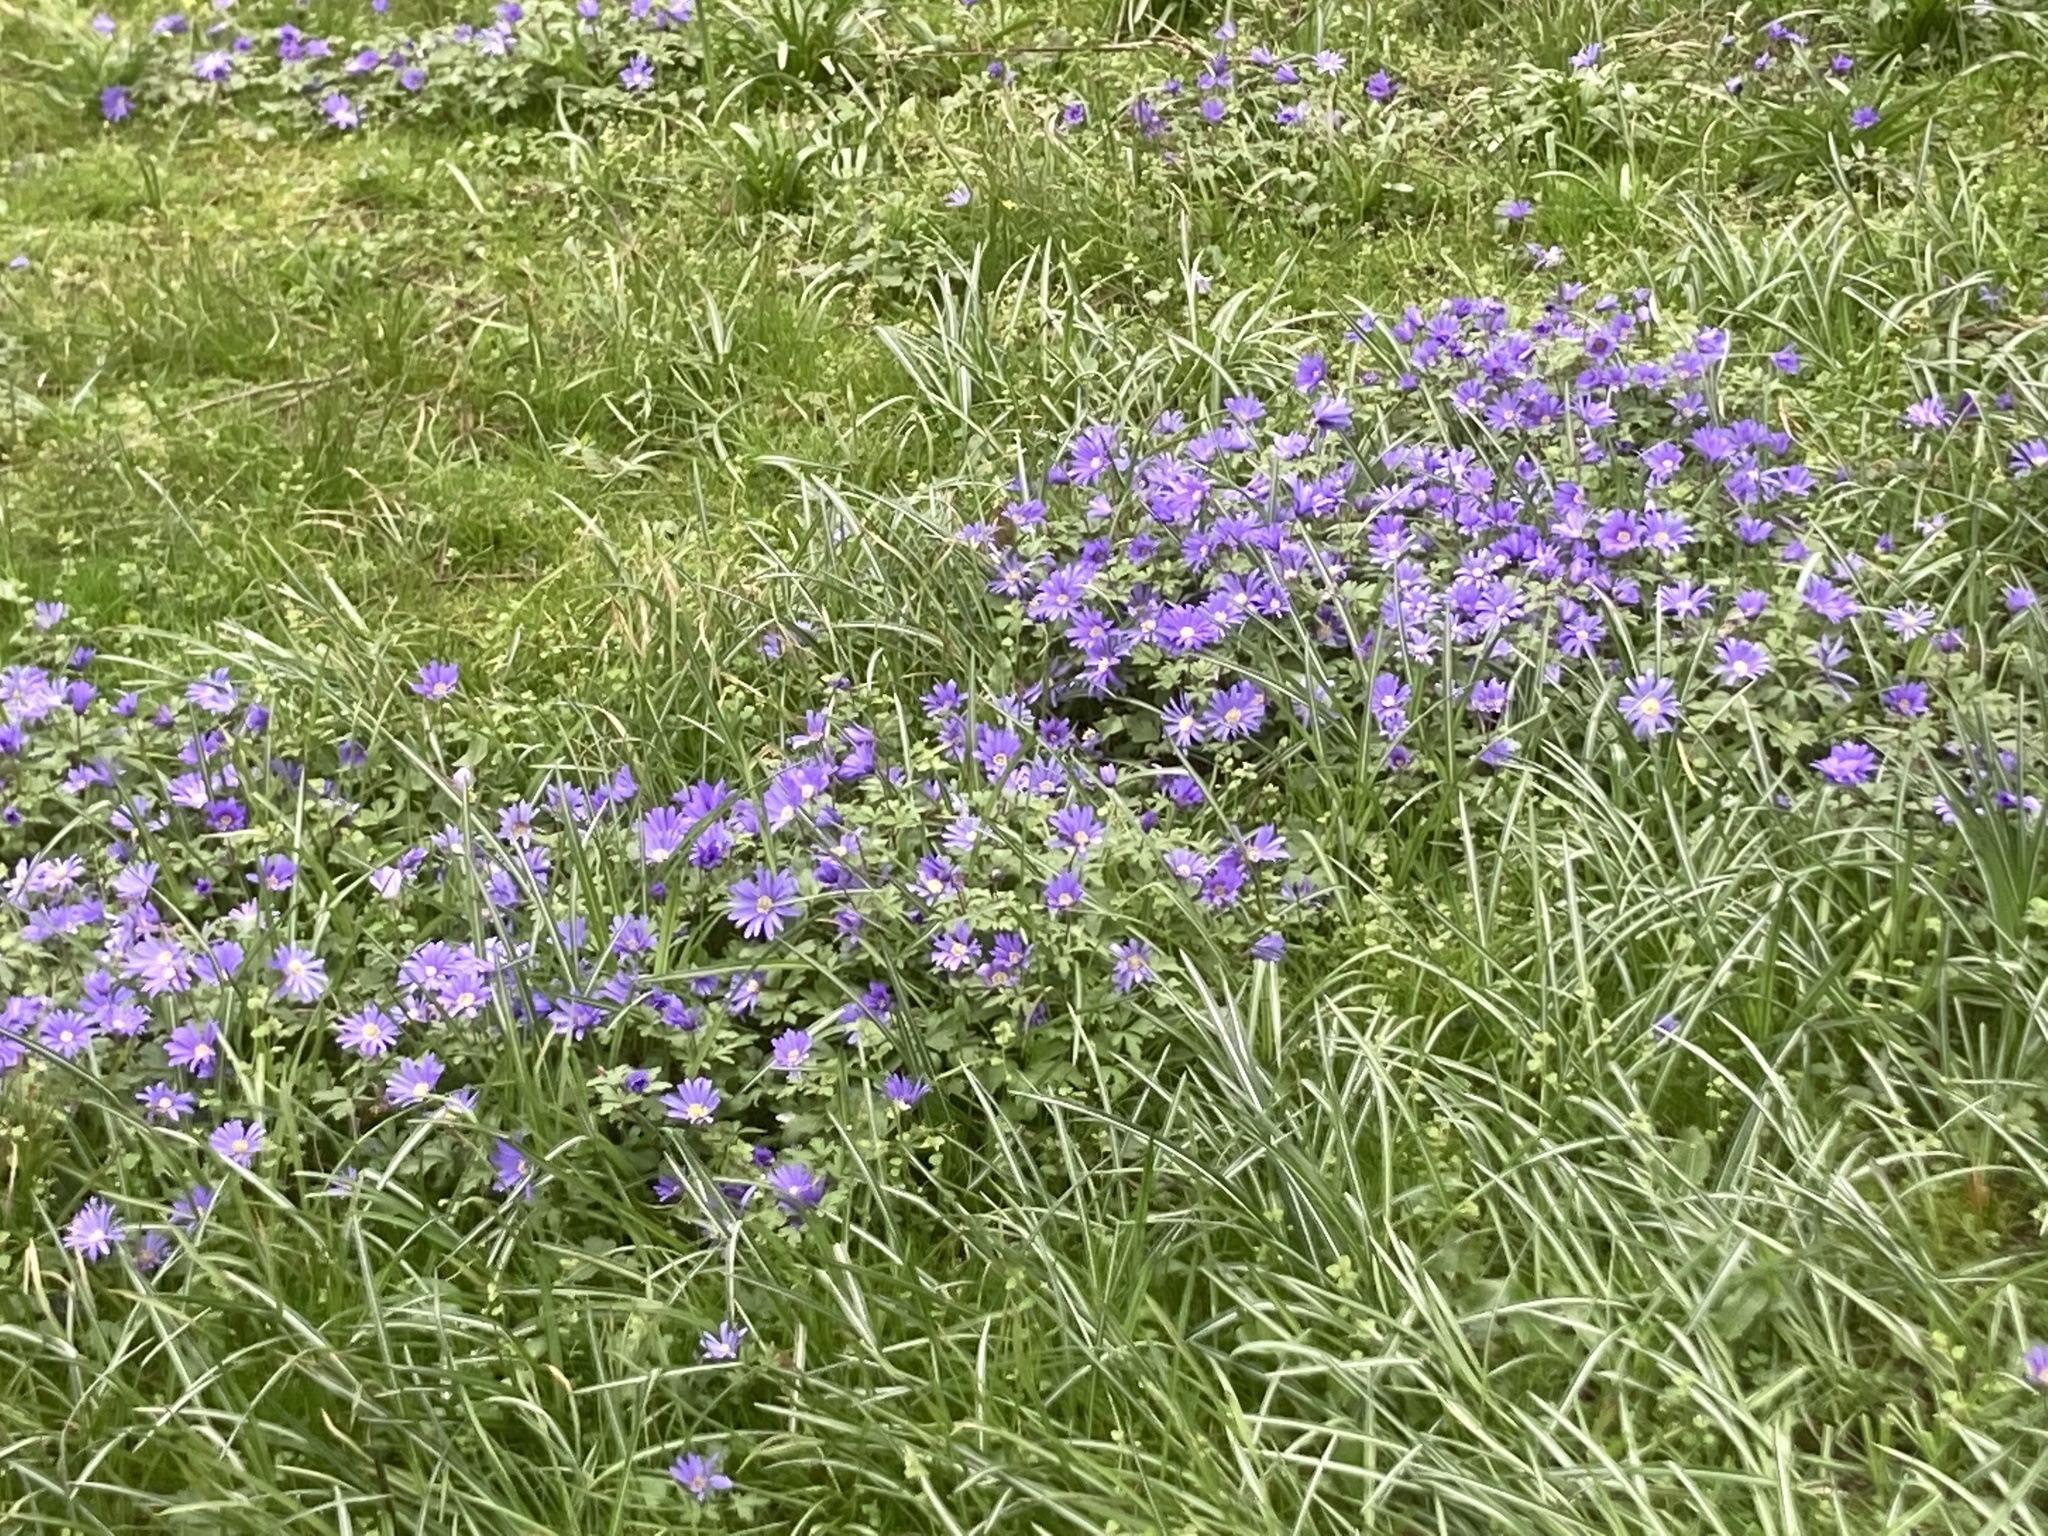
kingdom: Plantae
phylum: Tracheophyta
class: Magnoliopsida
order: Ranunculales
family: Ranunculaceae
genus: Anemone
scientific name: Anemone blanda
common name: Balkan anemone
